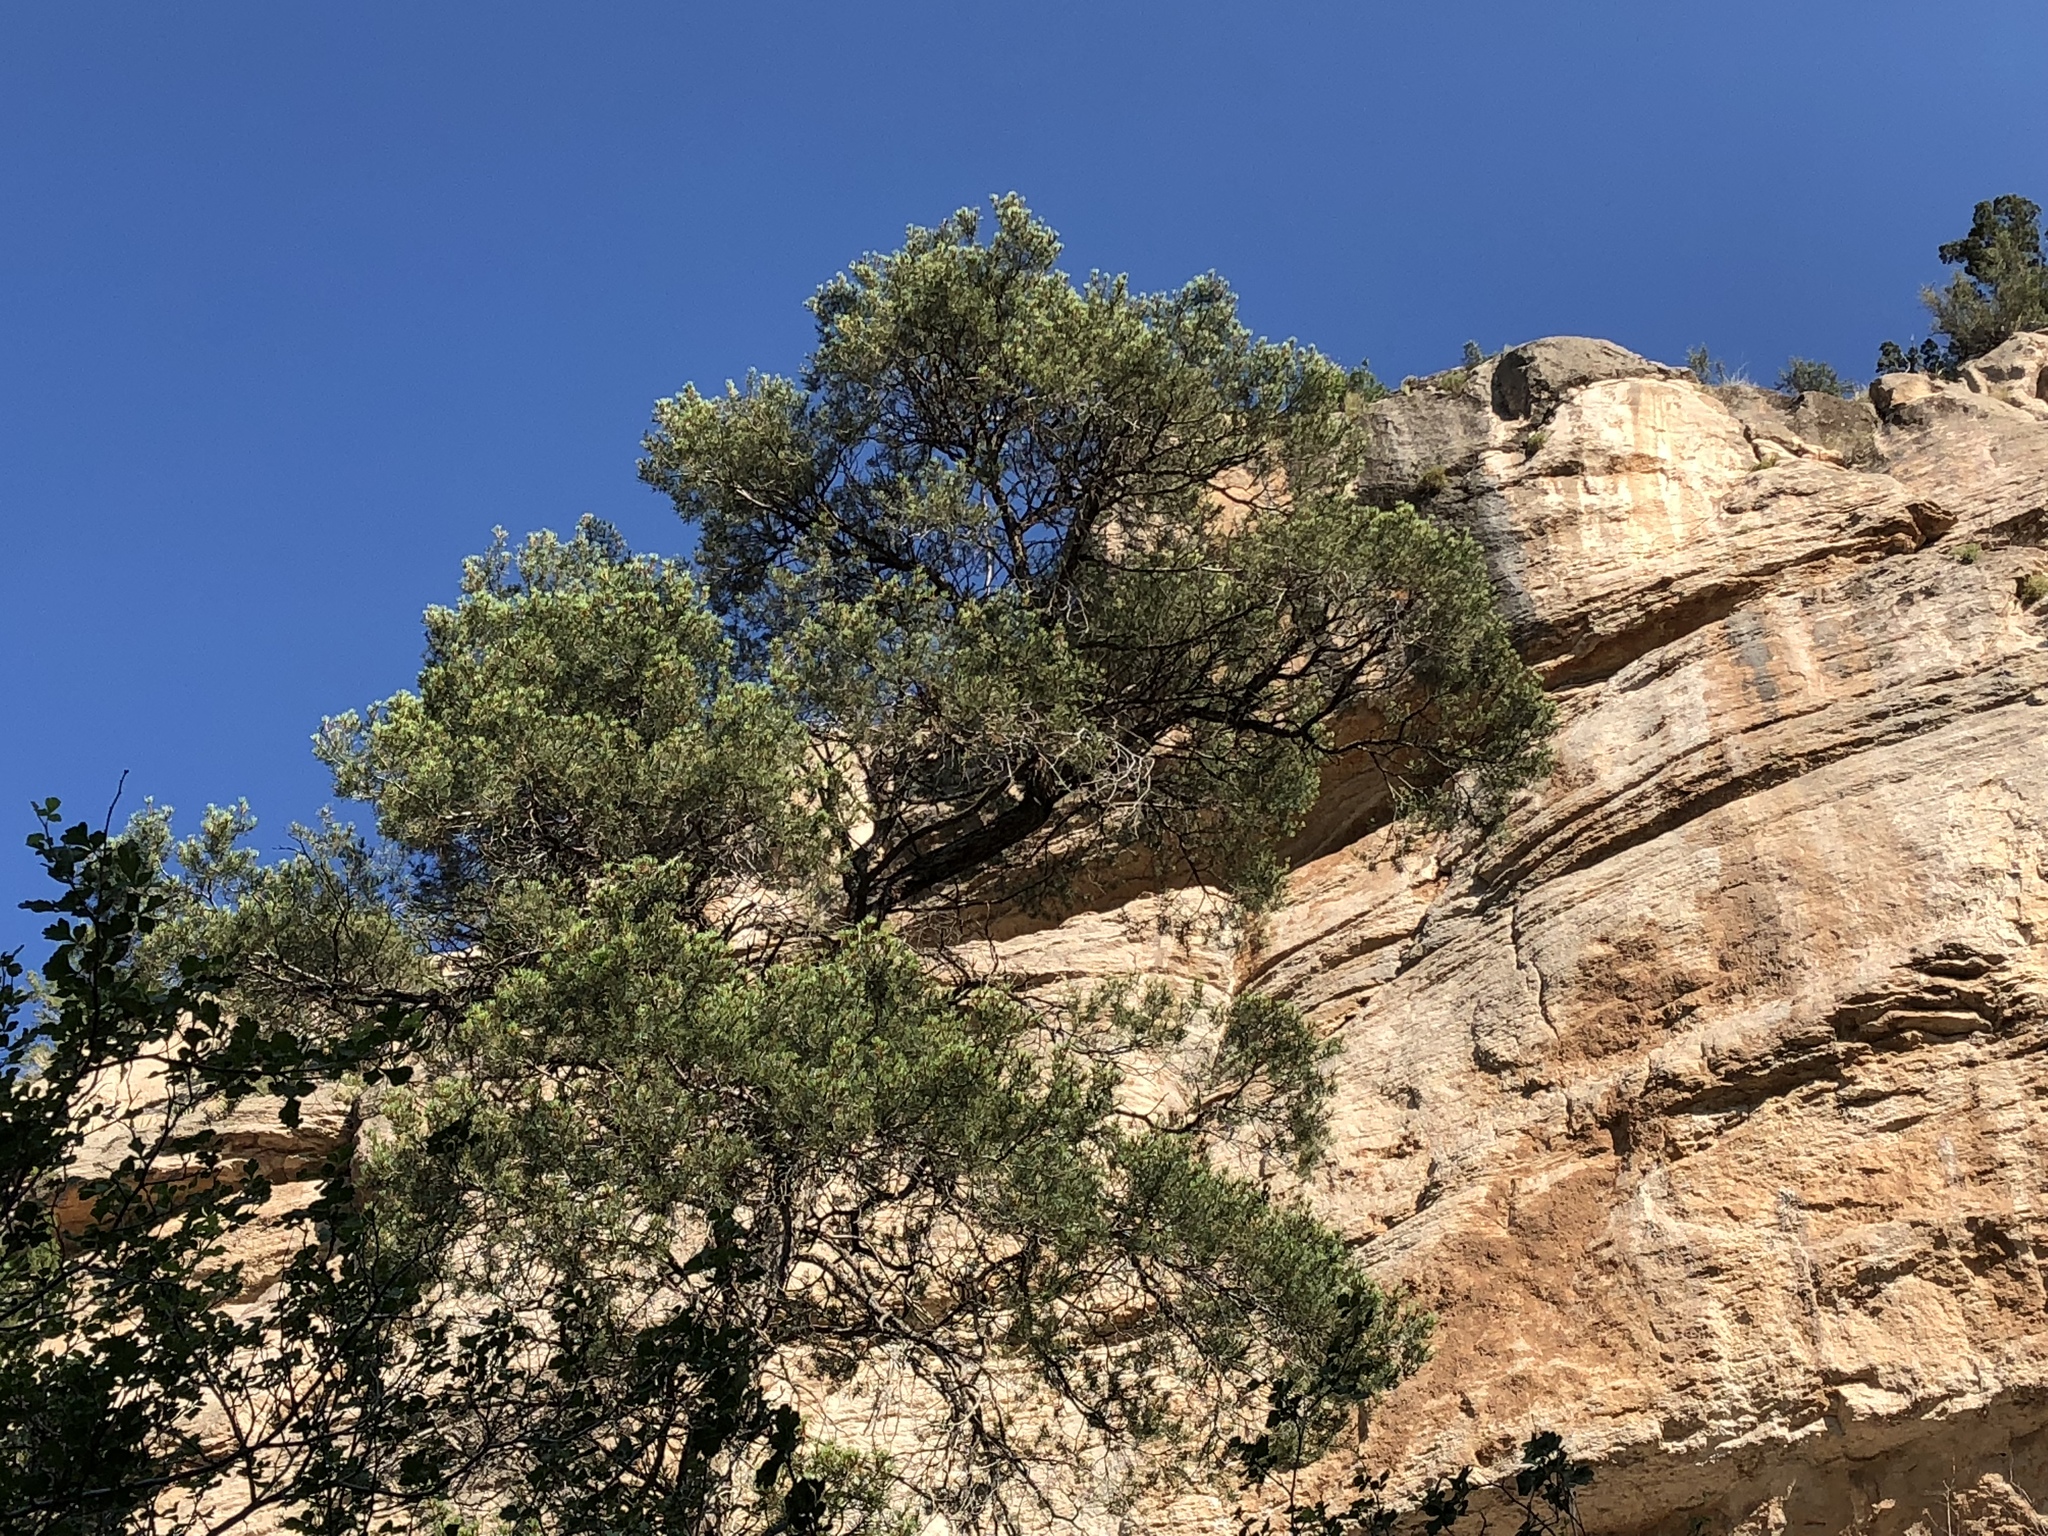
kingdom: Plantae
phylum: Tracheophyta
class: Pinopsida
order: Pinales
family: Pinaceae
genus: Pinus
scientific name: Pinus edulis
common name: Colorado pinyon
